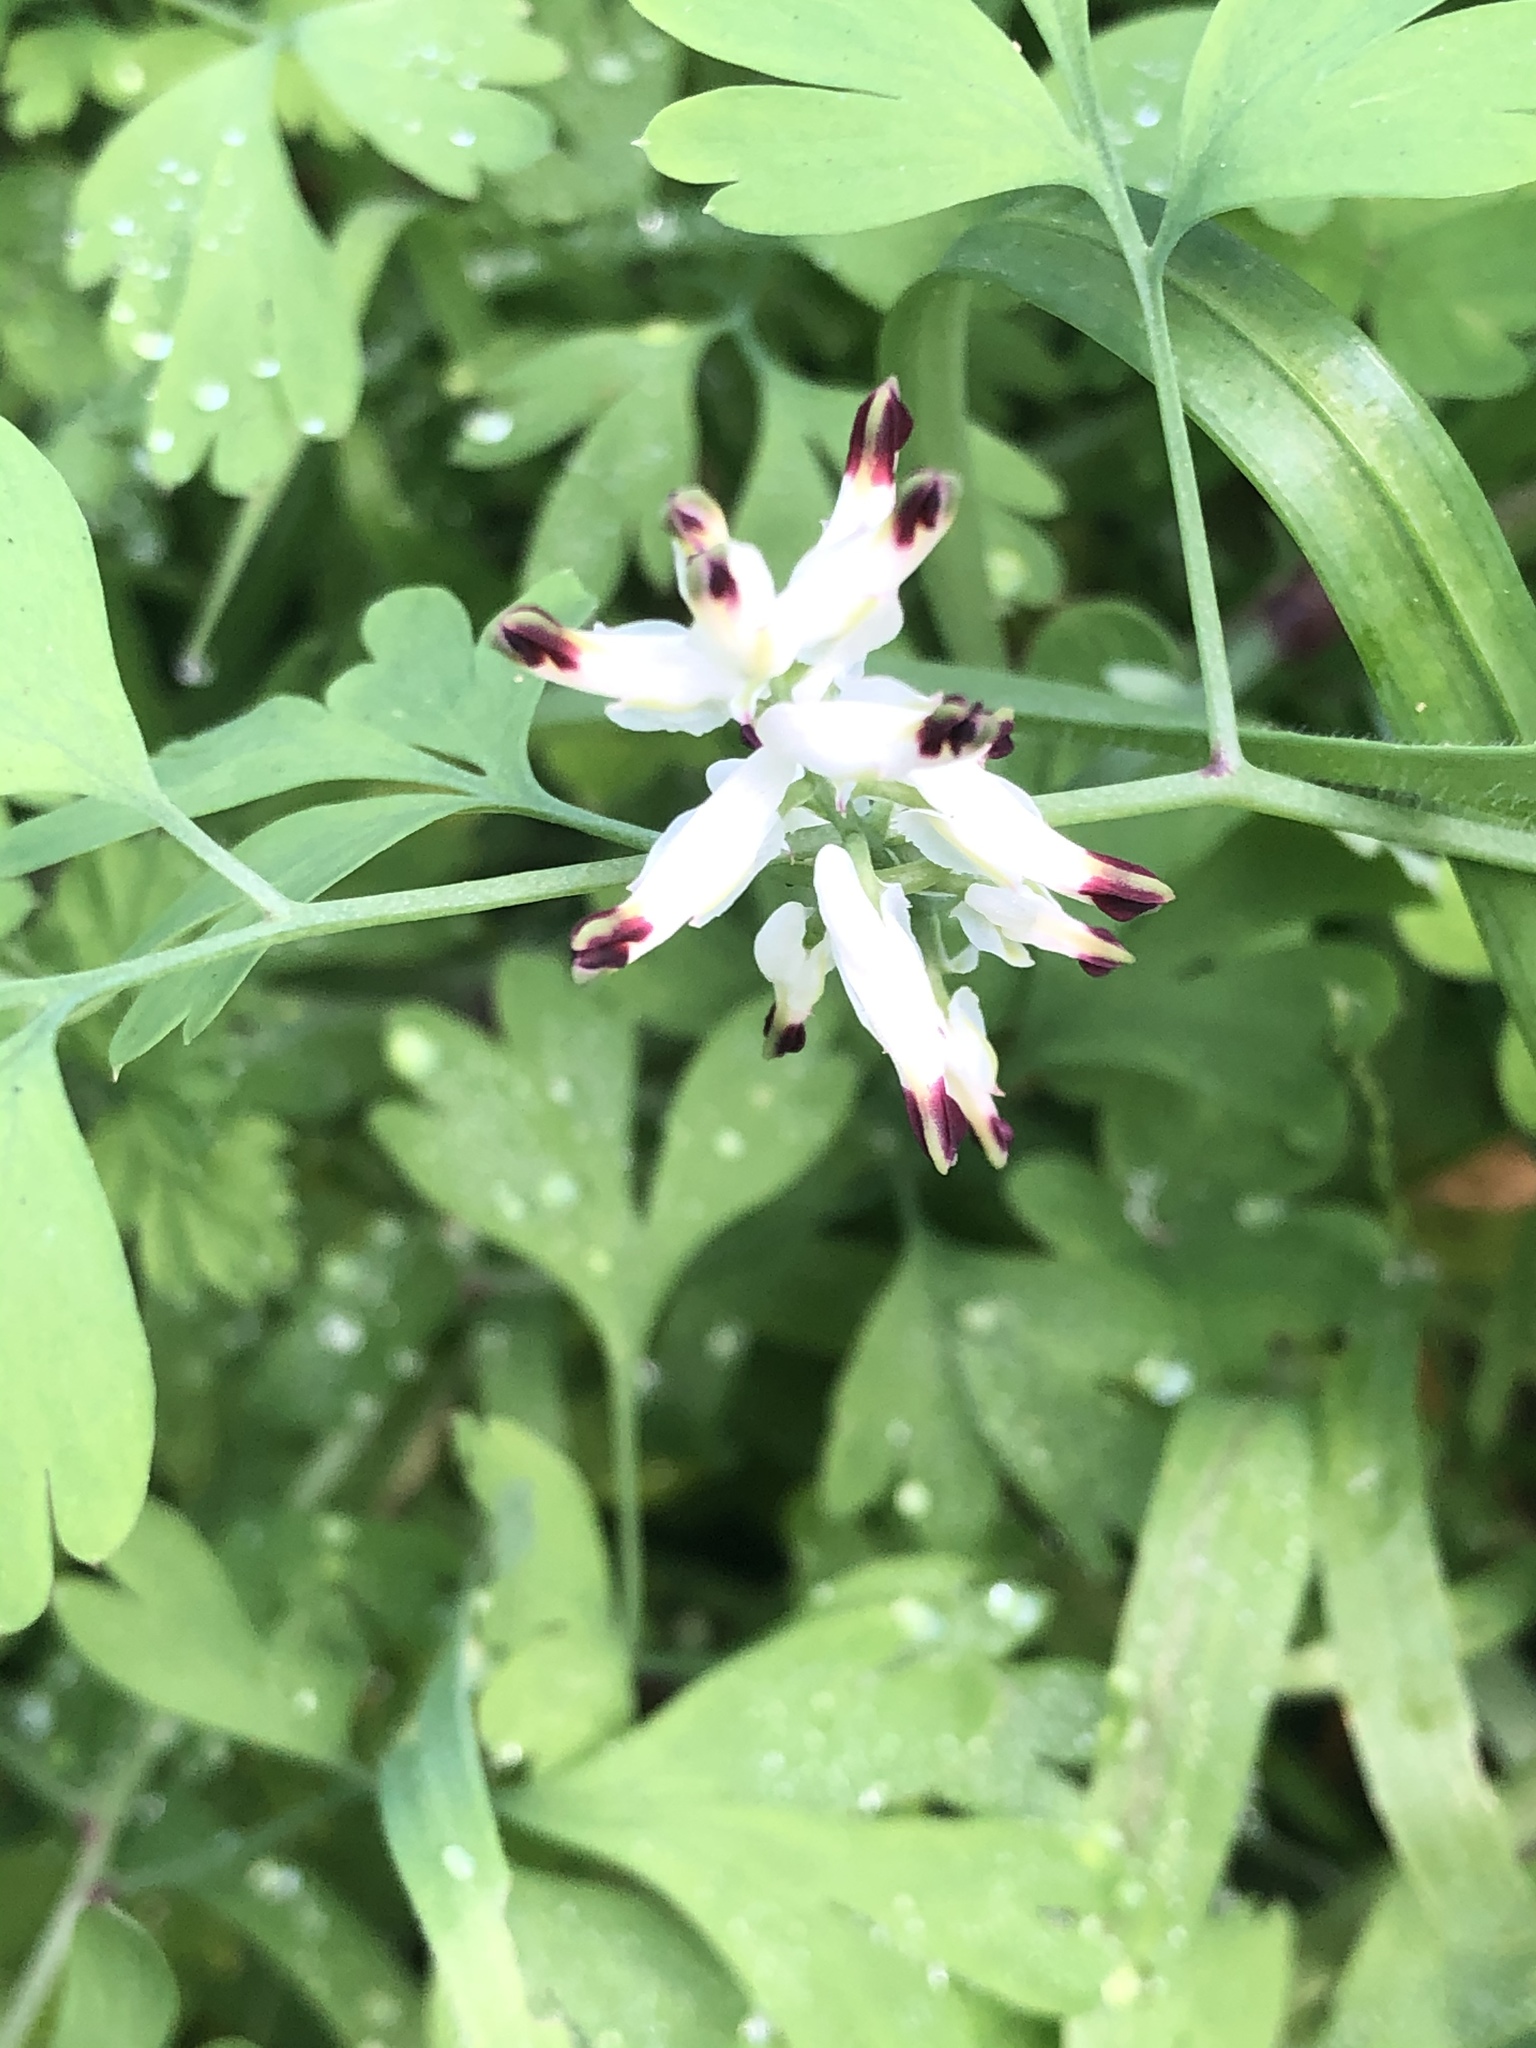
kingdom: Plantae
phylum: Tracheophyta
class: Magnoliopsida
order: Ranunculales
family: Papaveraceae
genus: Fumaria
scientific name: Fumaria capreolata
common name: White ramping-fumitory
